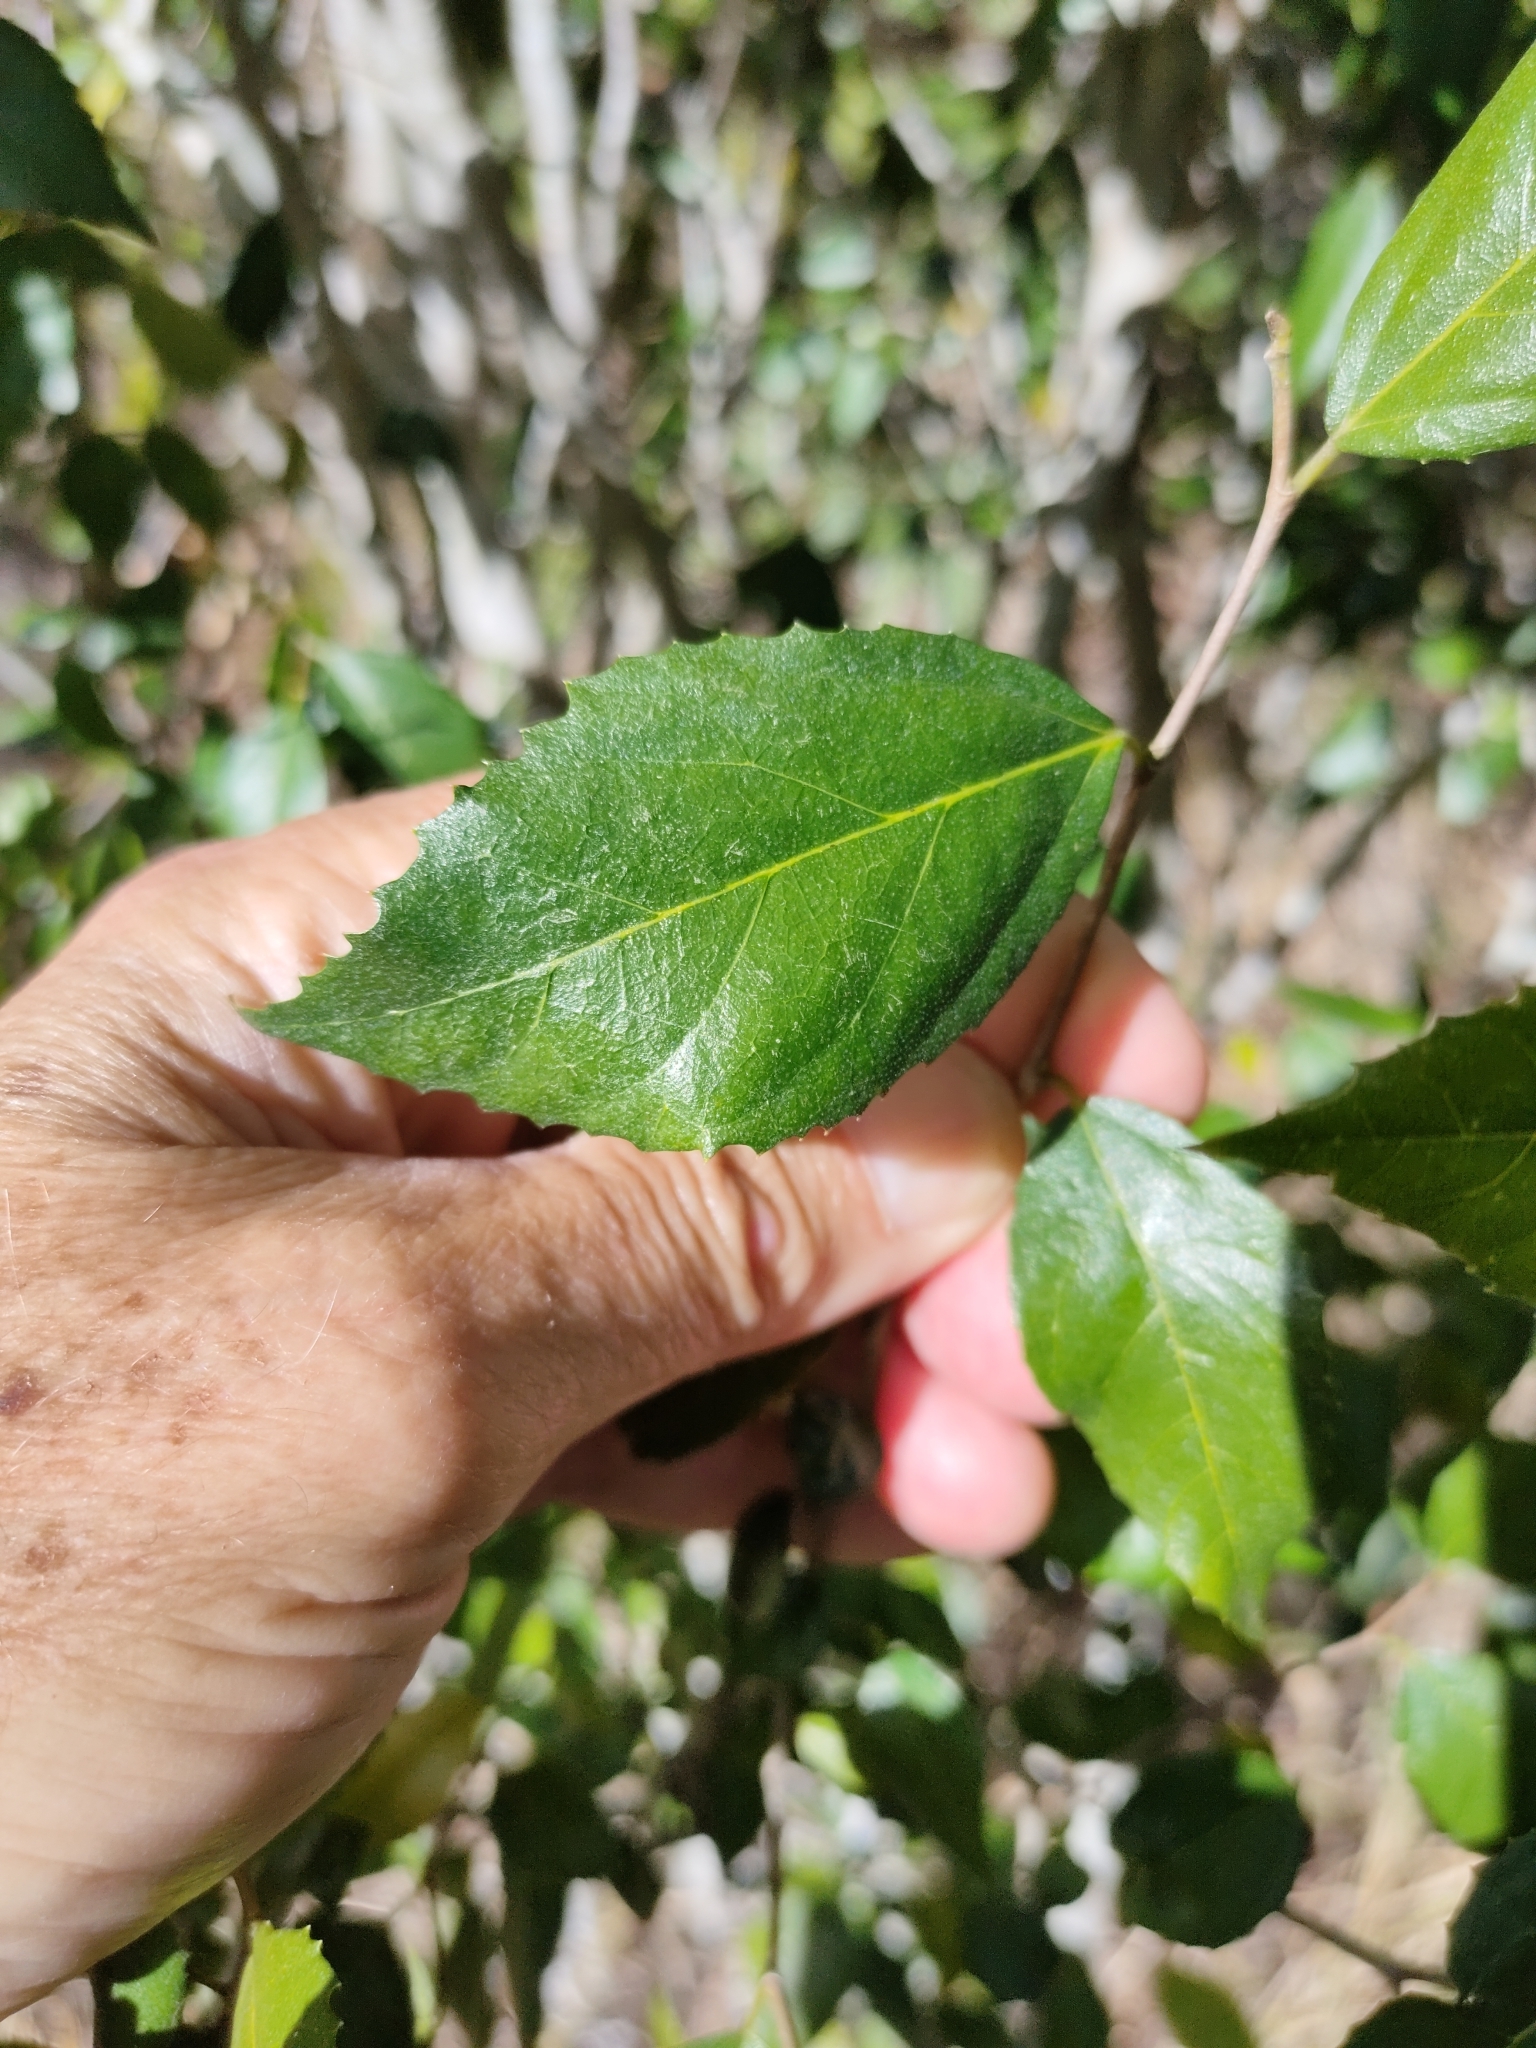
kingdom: Plantae
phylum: Tracheophyta
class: Magnoliopsida
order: Rosales
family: Moraceae
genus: Paratrophis
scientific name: Paratrophis pendulina
